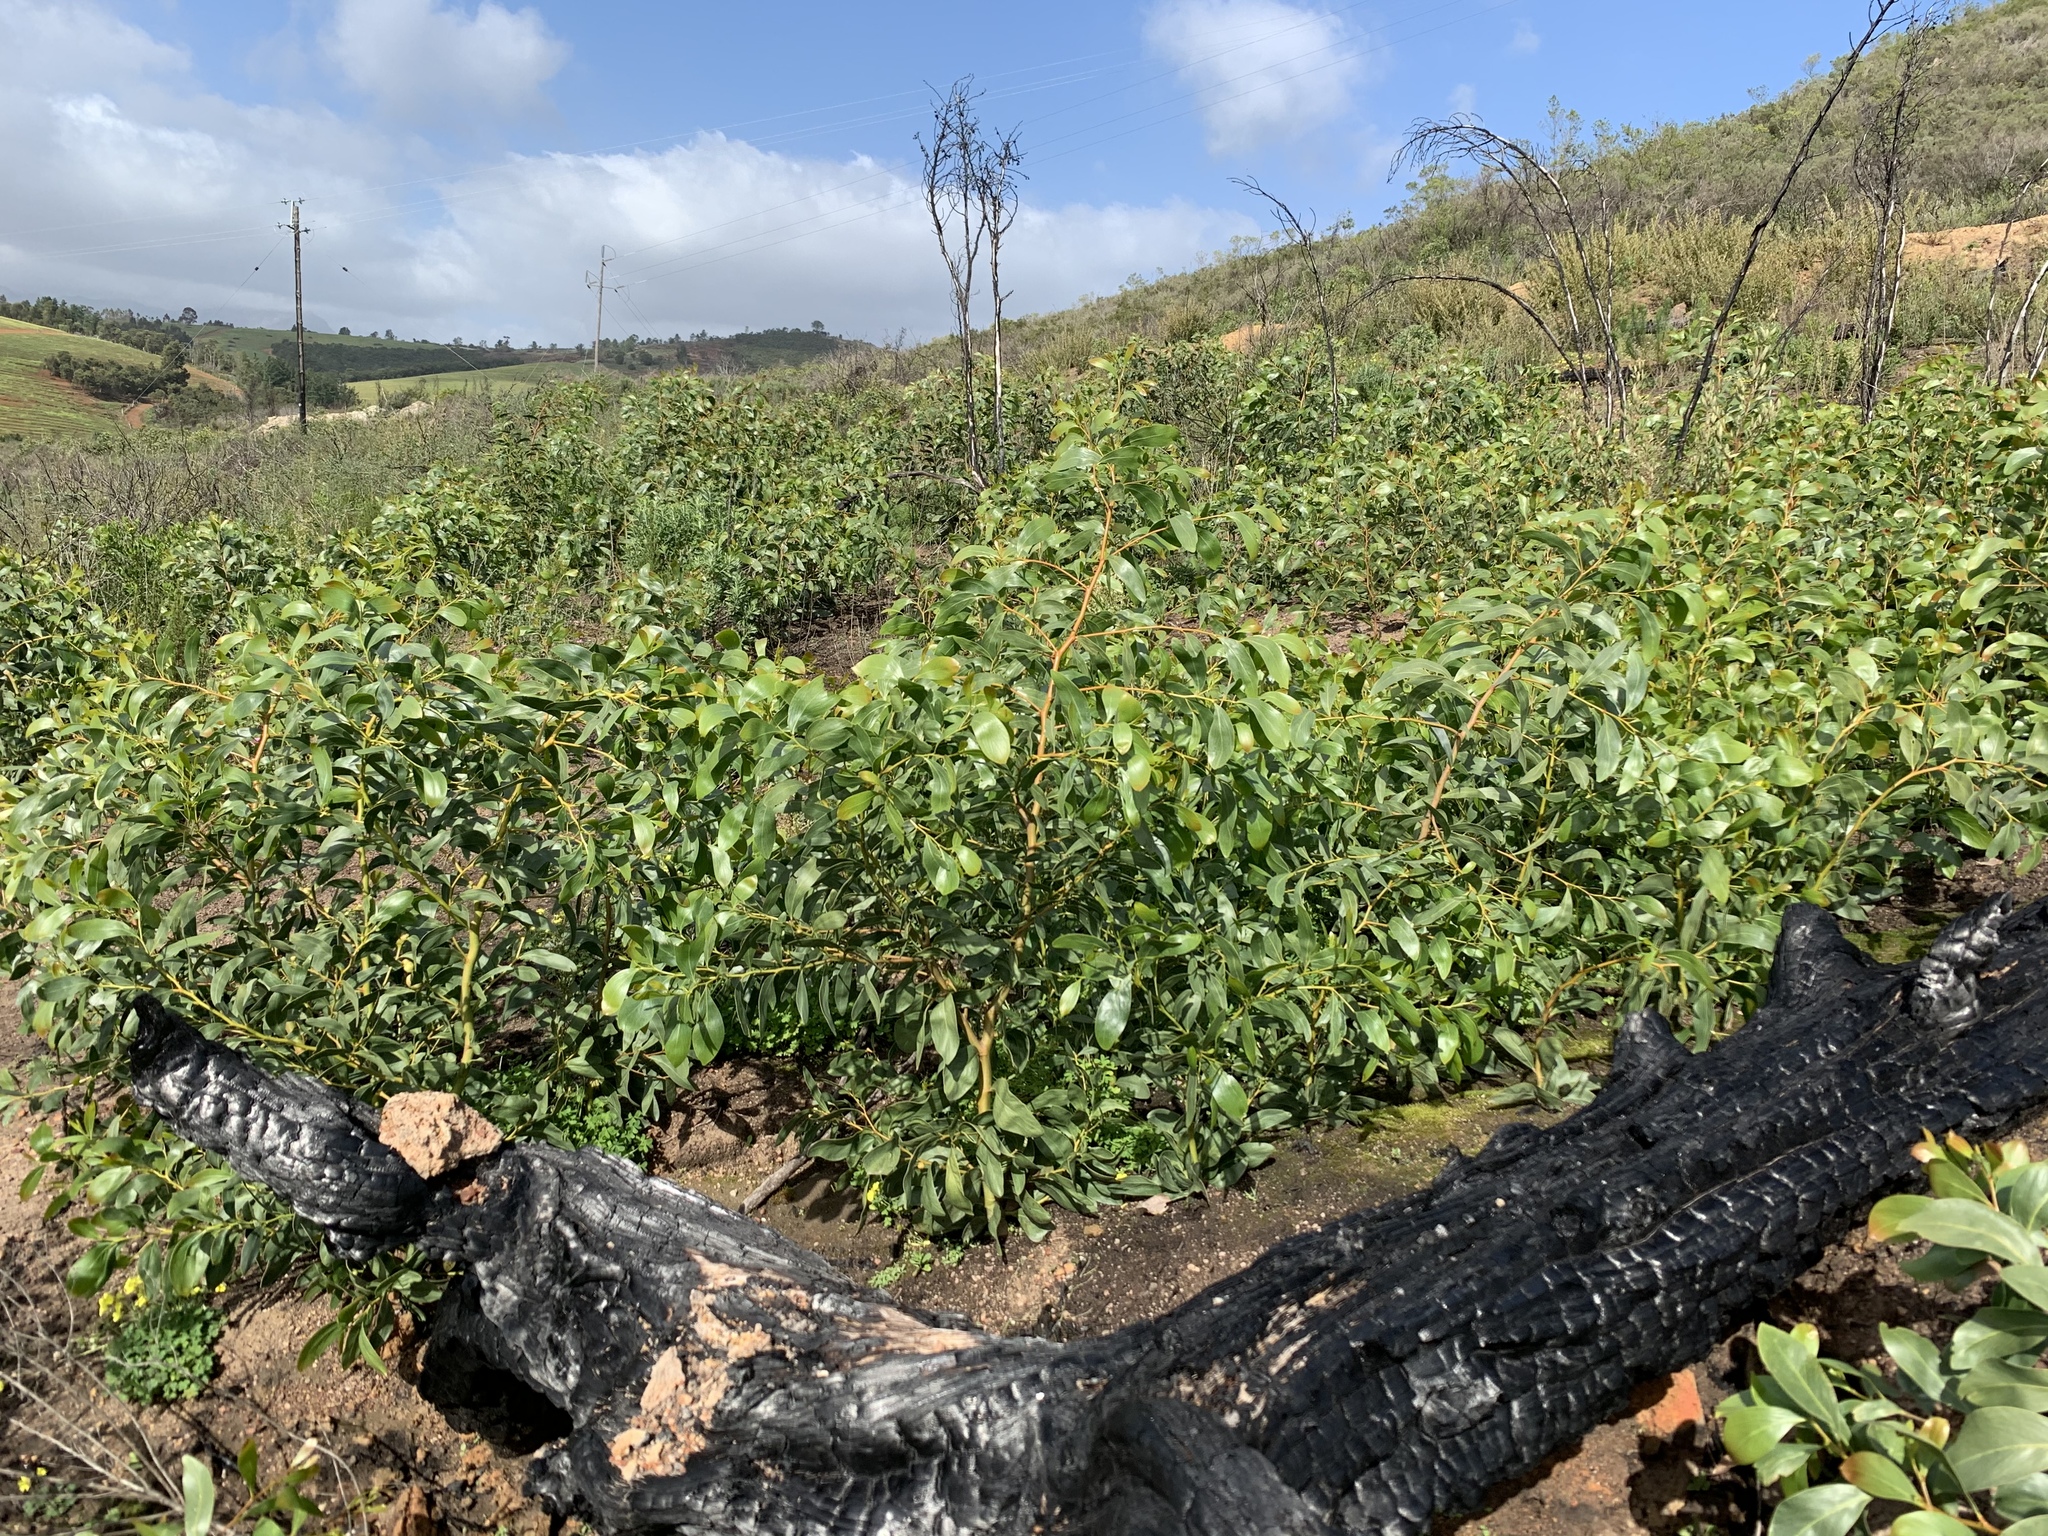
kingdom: Plantae
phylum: Tracheophyta
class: Magnoliopsida
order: Fabales
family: Fabaceae
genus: Acacia
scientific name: Acacia pycnantha
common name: Golden wattle
